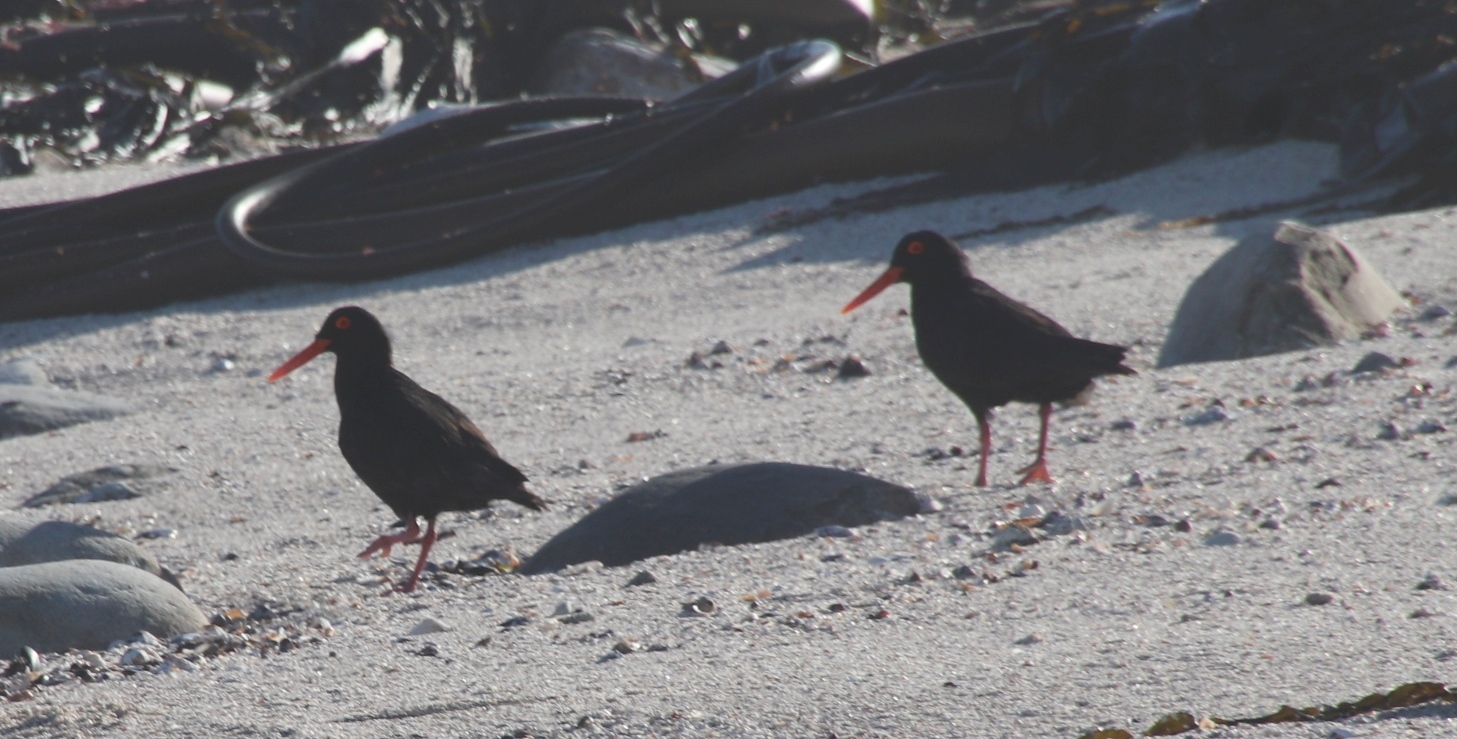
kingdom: Animalia
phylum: Chordata
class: Aves
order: Charadriiformes
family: Haematopodidae
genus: Haematopus
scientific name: Haematopus moquini
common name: African oystercatcher
